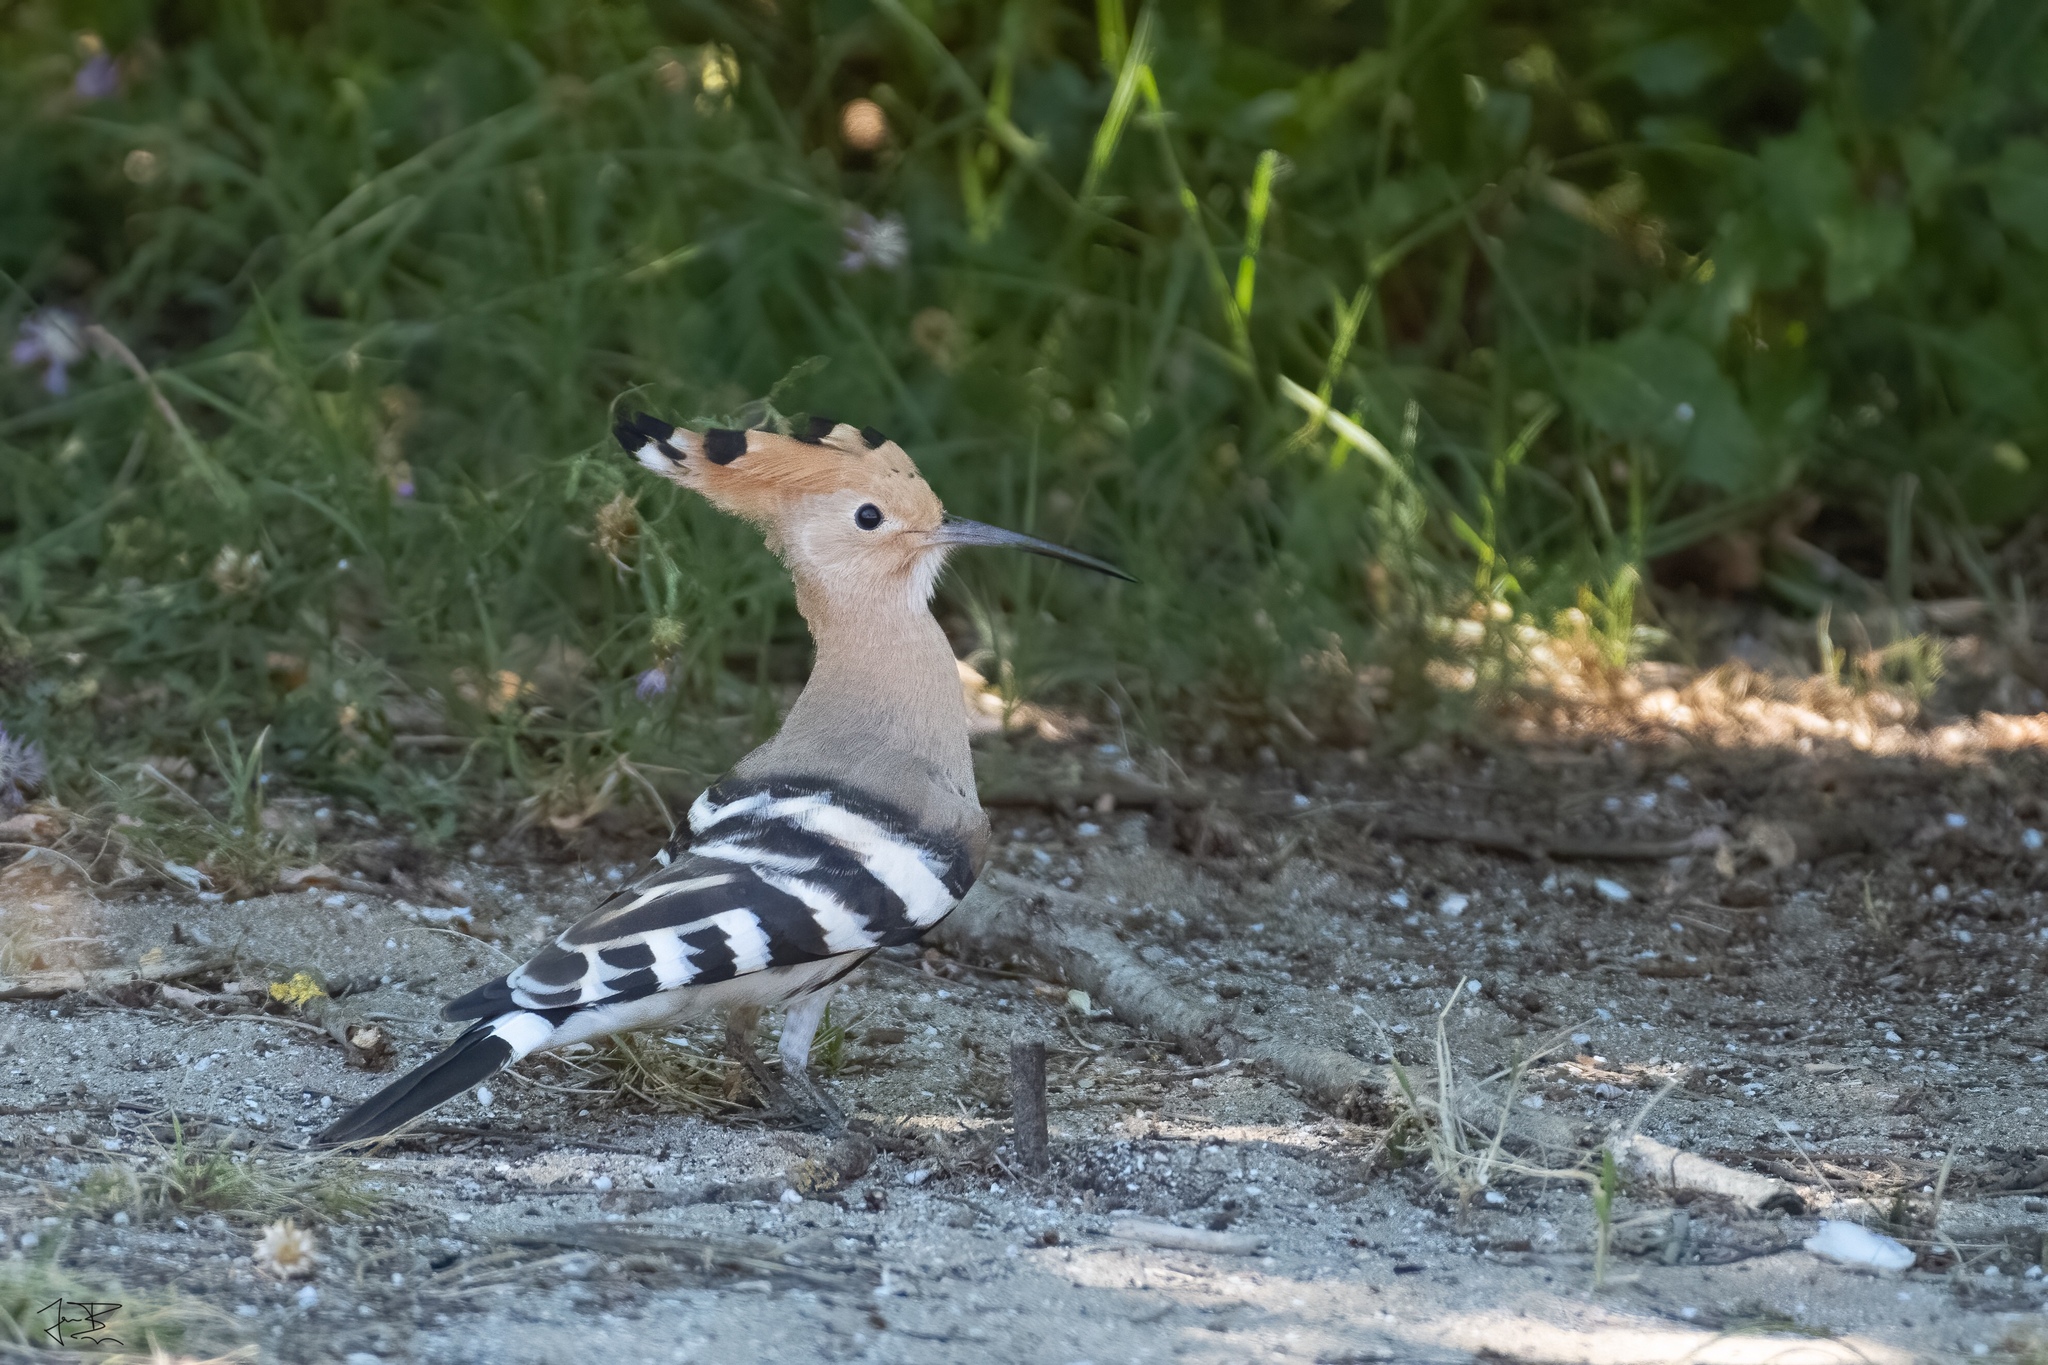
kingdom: Animalia
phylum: Chordata
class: Aves
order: Bucerotiformes
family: Upupidae
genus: Upupa
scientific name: Upupa epops
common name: Eurasian hoopoe
